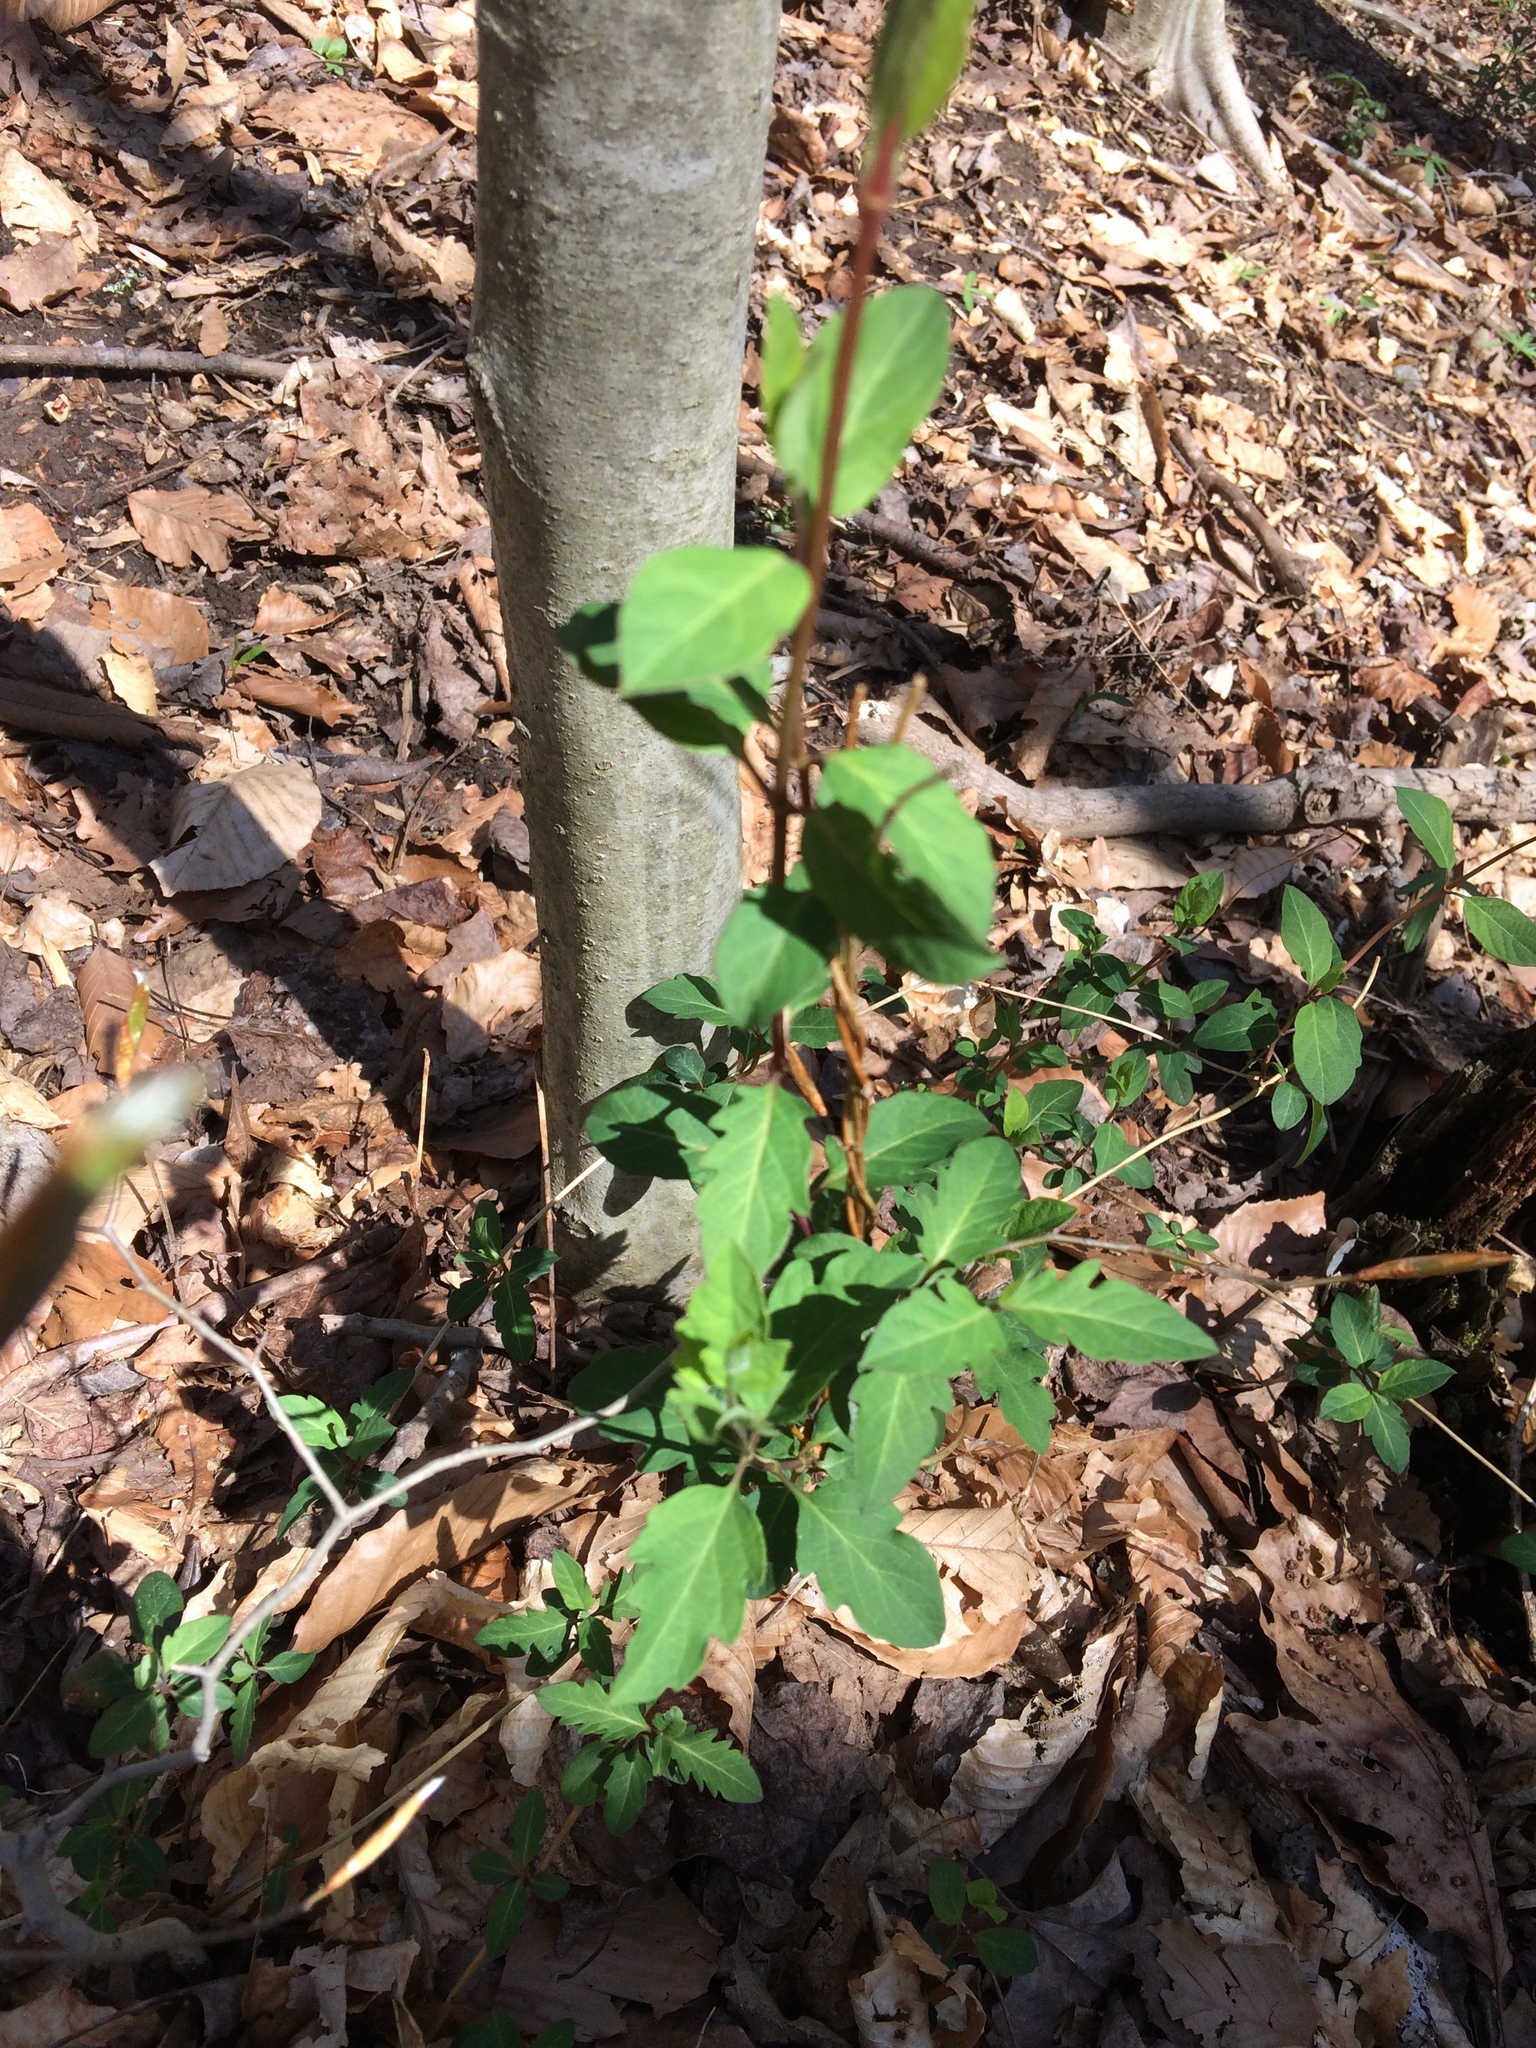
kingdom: Plantae
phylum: Tracheophyta
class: Magnoliopsida
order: Dipsacales
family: Caprifoliaceae
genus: Lonicera
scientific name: Lonicera japonica
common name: Japanese honeysuckle
